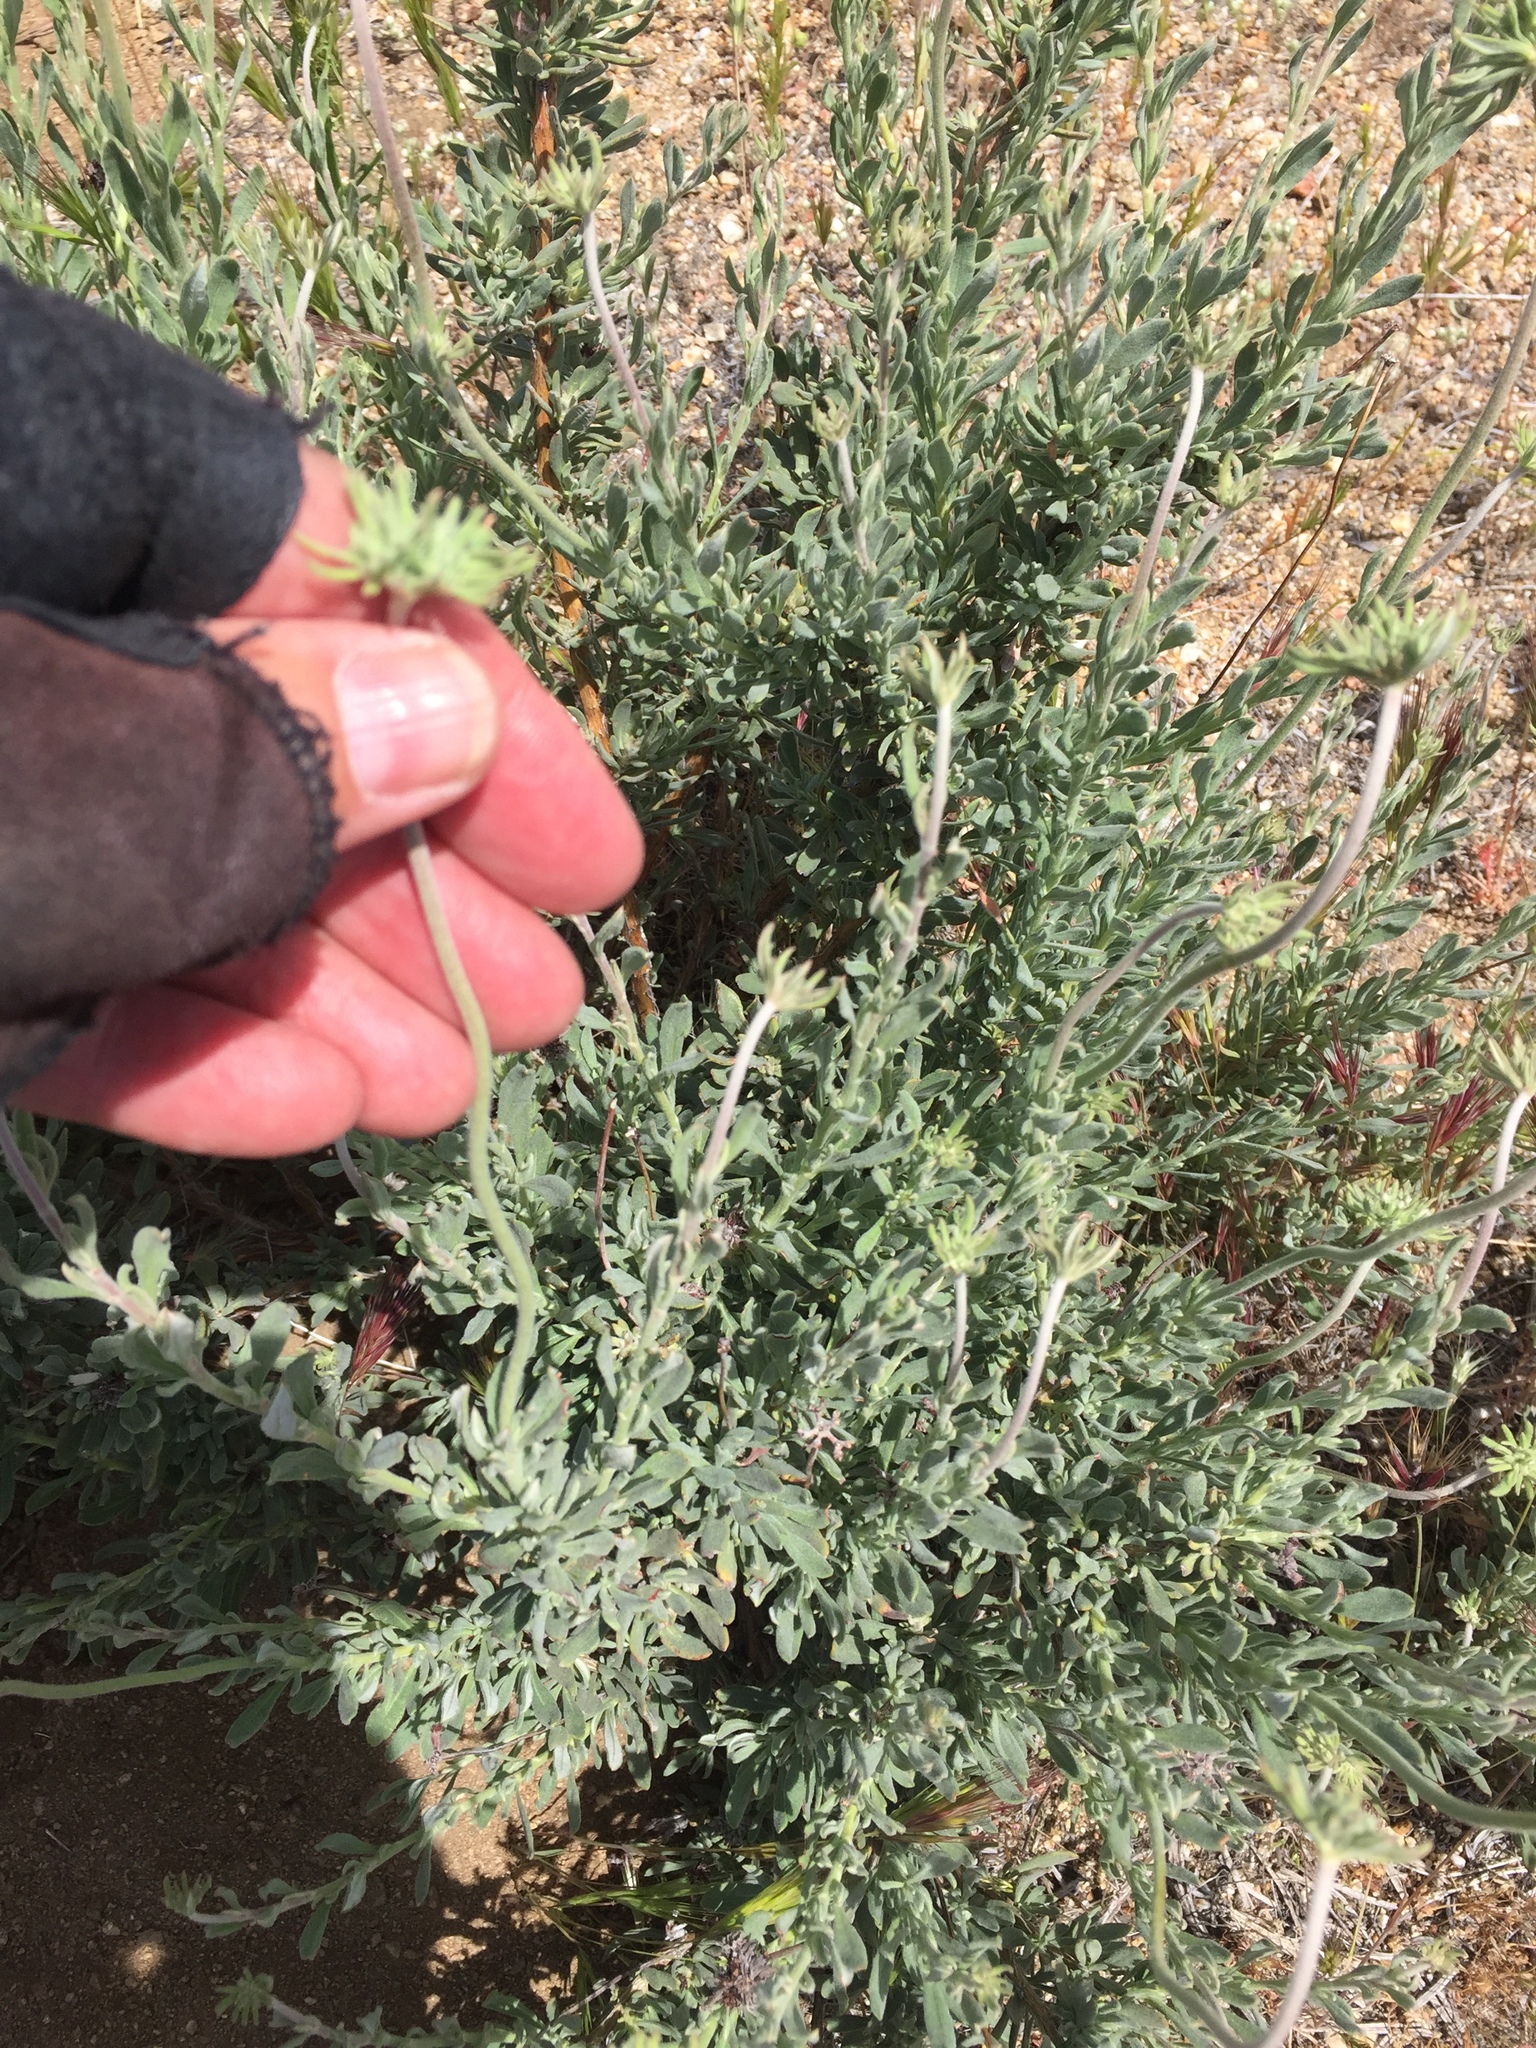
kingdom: Plantae
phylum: Tracheophyta
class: Magnoliopsida
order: Caryophyllales
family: Polygonaceae
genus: Eriogonum
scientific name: Eriogonum fasciculatum
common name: California wild buckwheat
